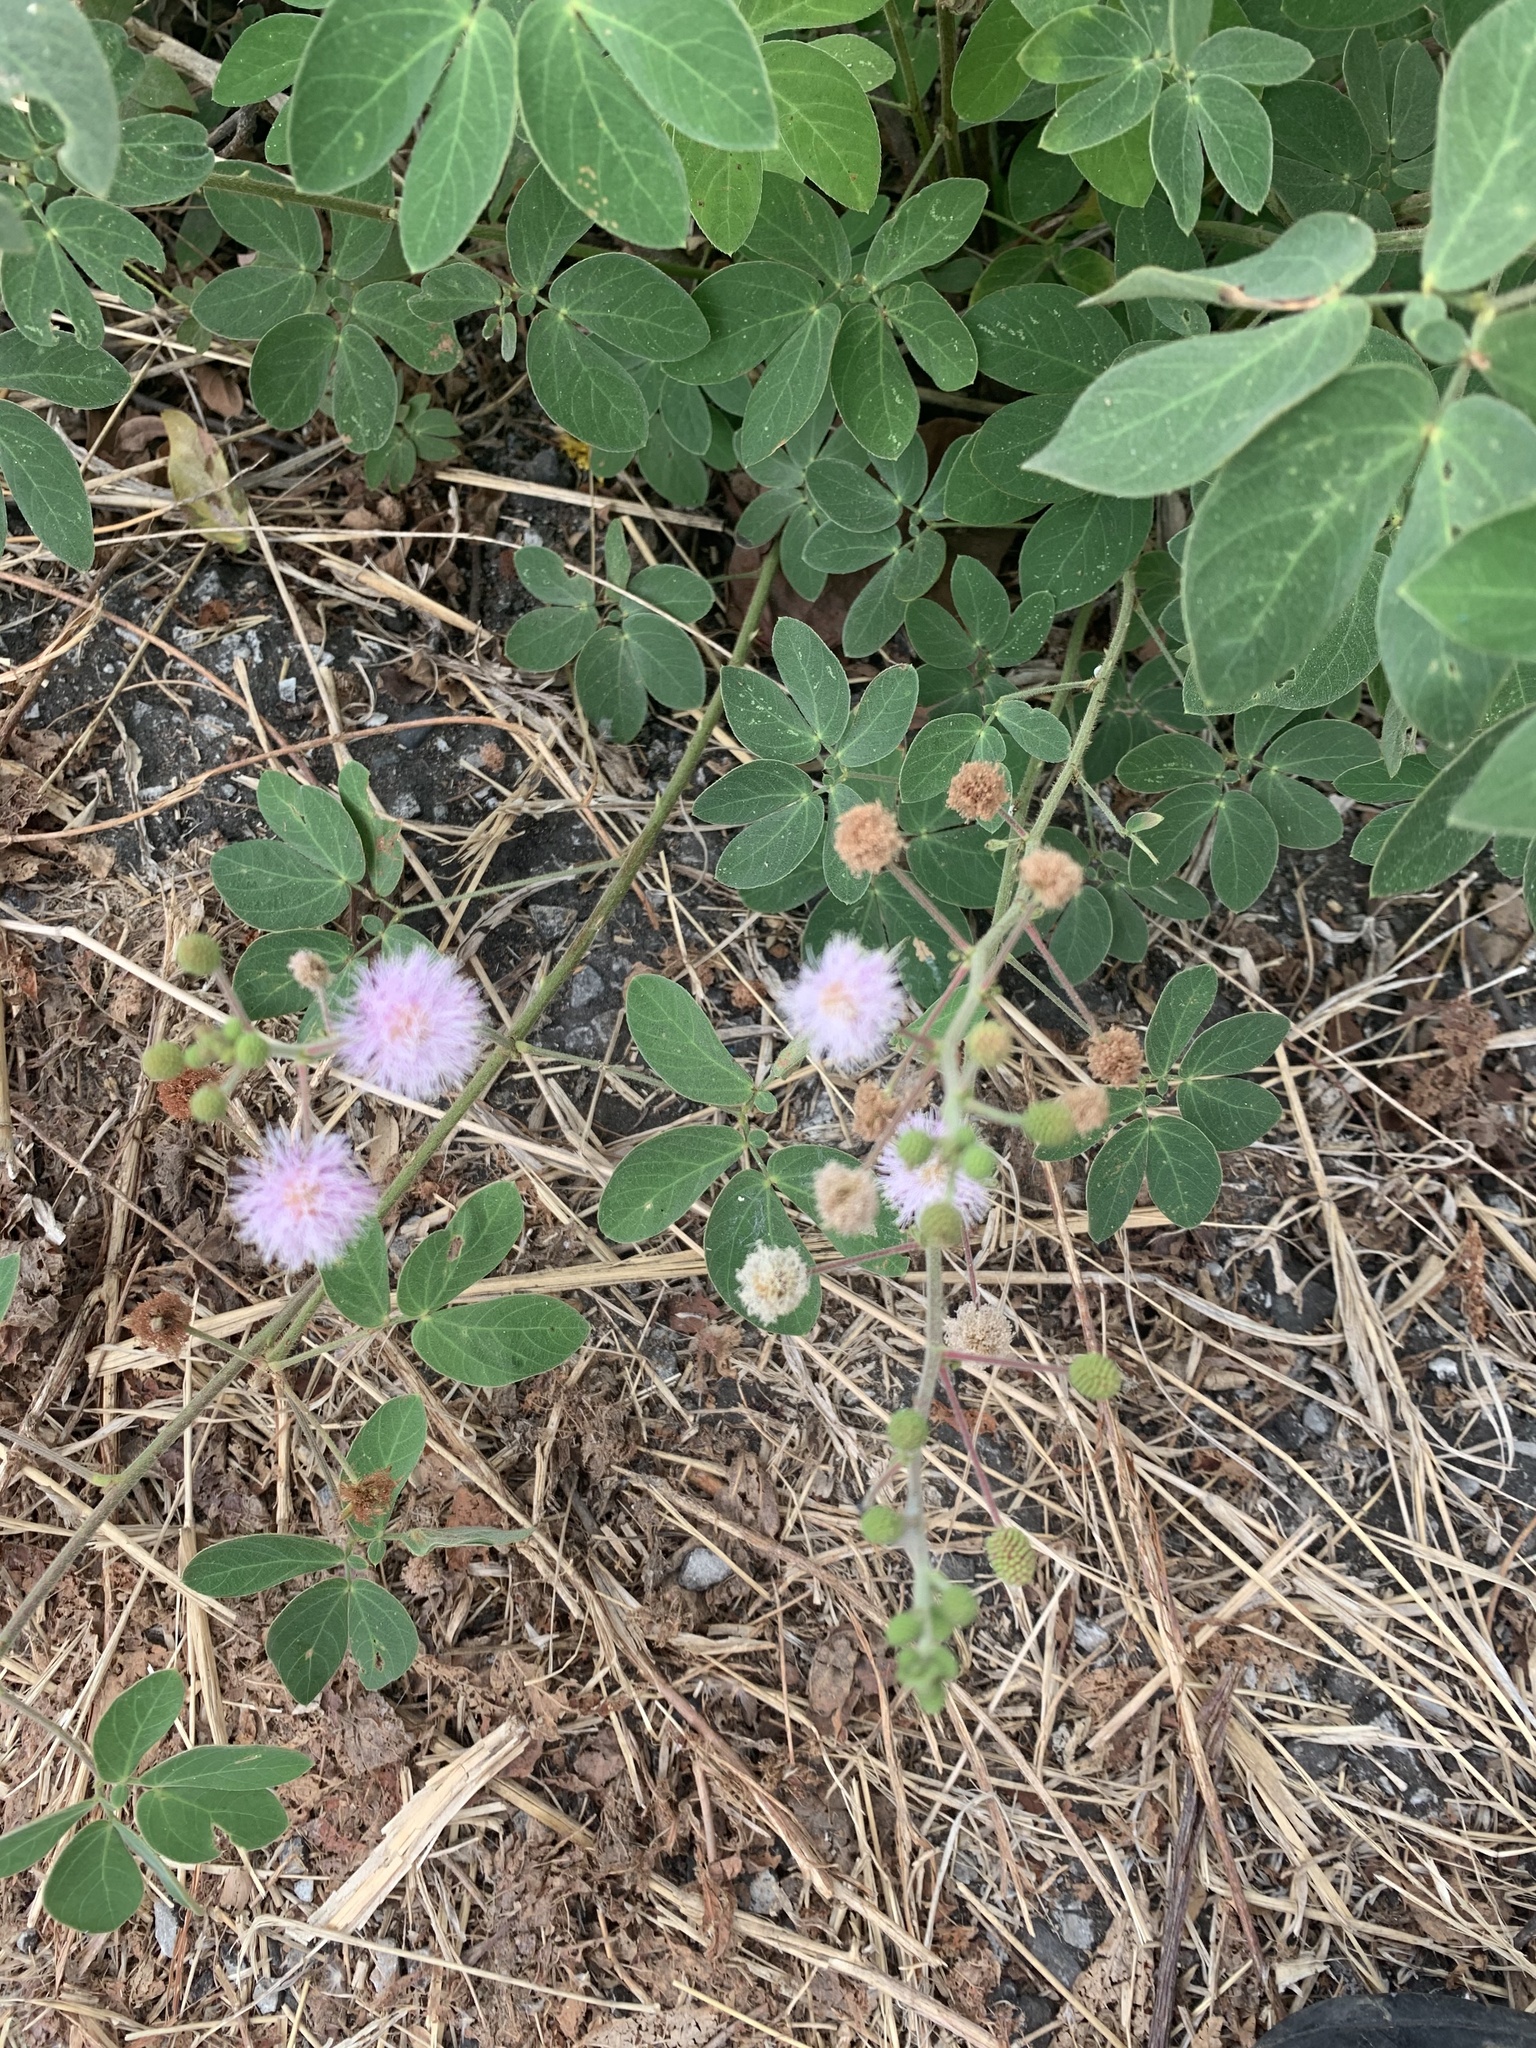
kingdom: Plantae
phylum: Tracheophyta
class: Magnoliopsida
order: Fabales
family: Fabaceae
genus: Mimosa
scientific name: Mimosa albida
